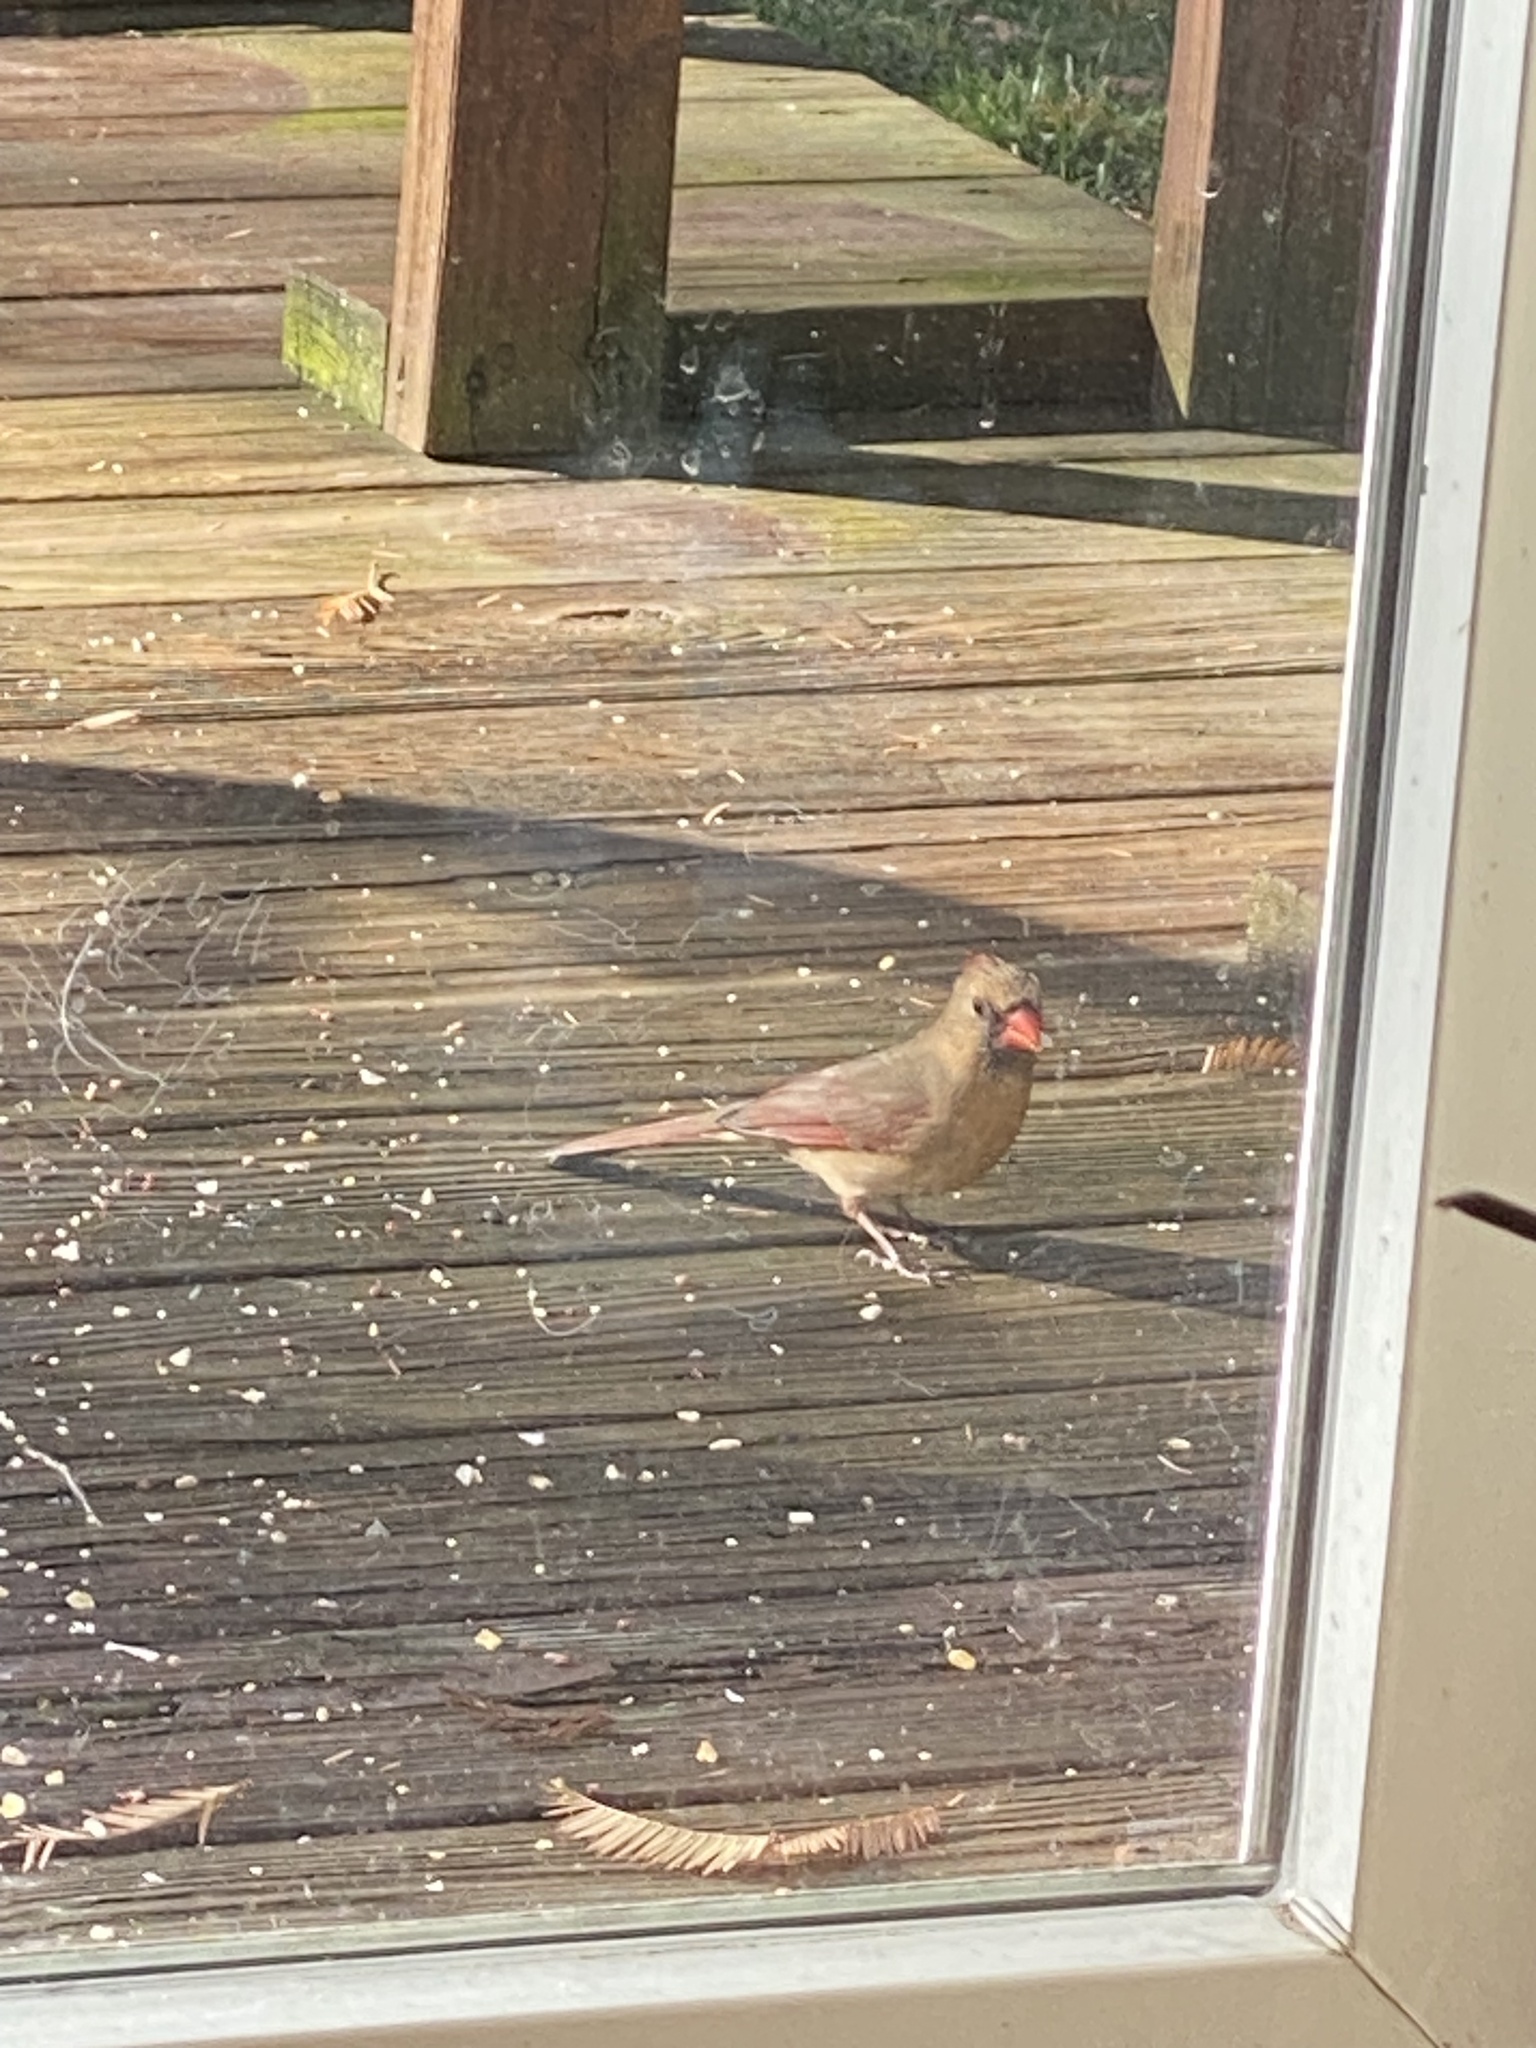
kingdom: Animalia
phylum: Chordata
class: Aves
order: Passeriformes
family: Cardinalidae
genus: Cardinalis
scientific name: Cardinalis cardinalis
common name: Northern cardinal
